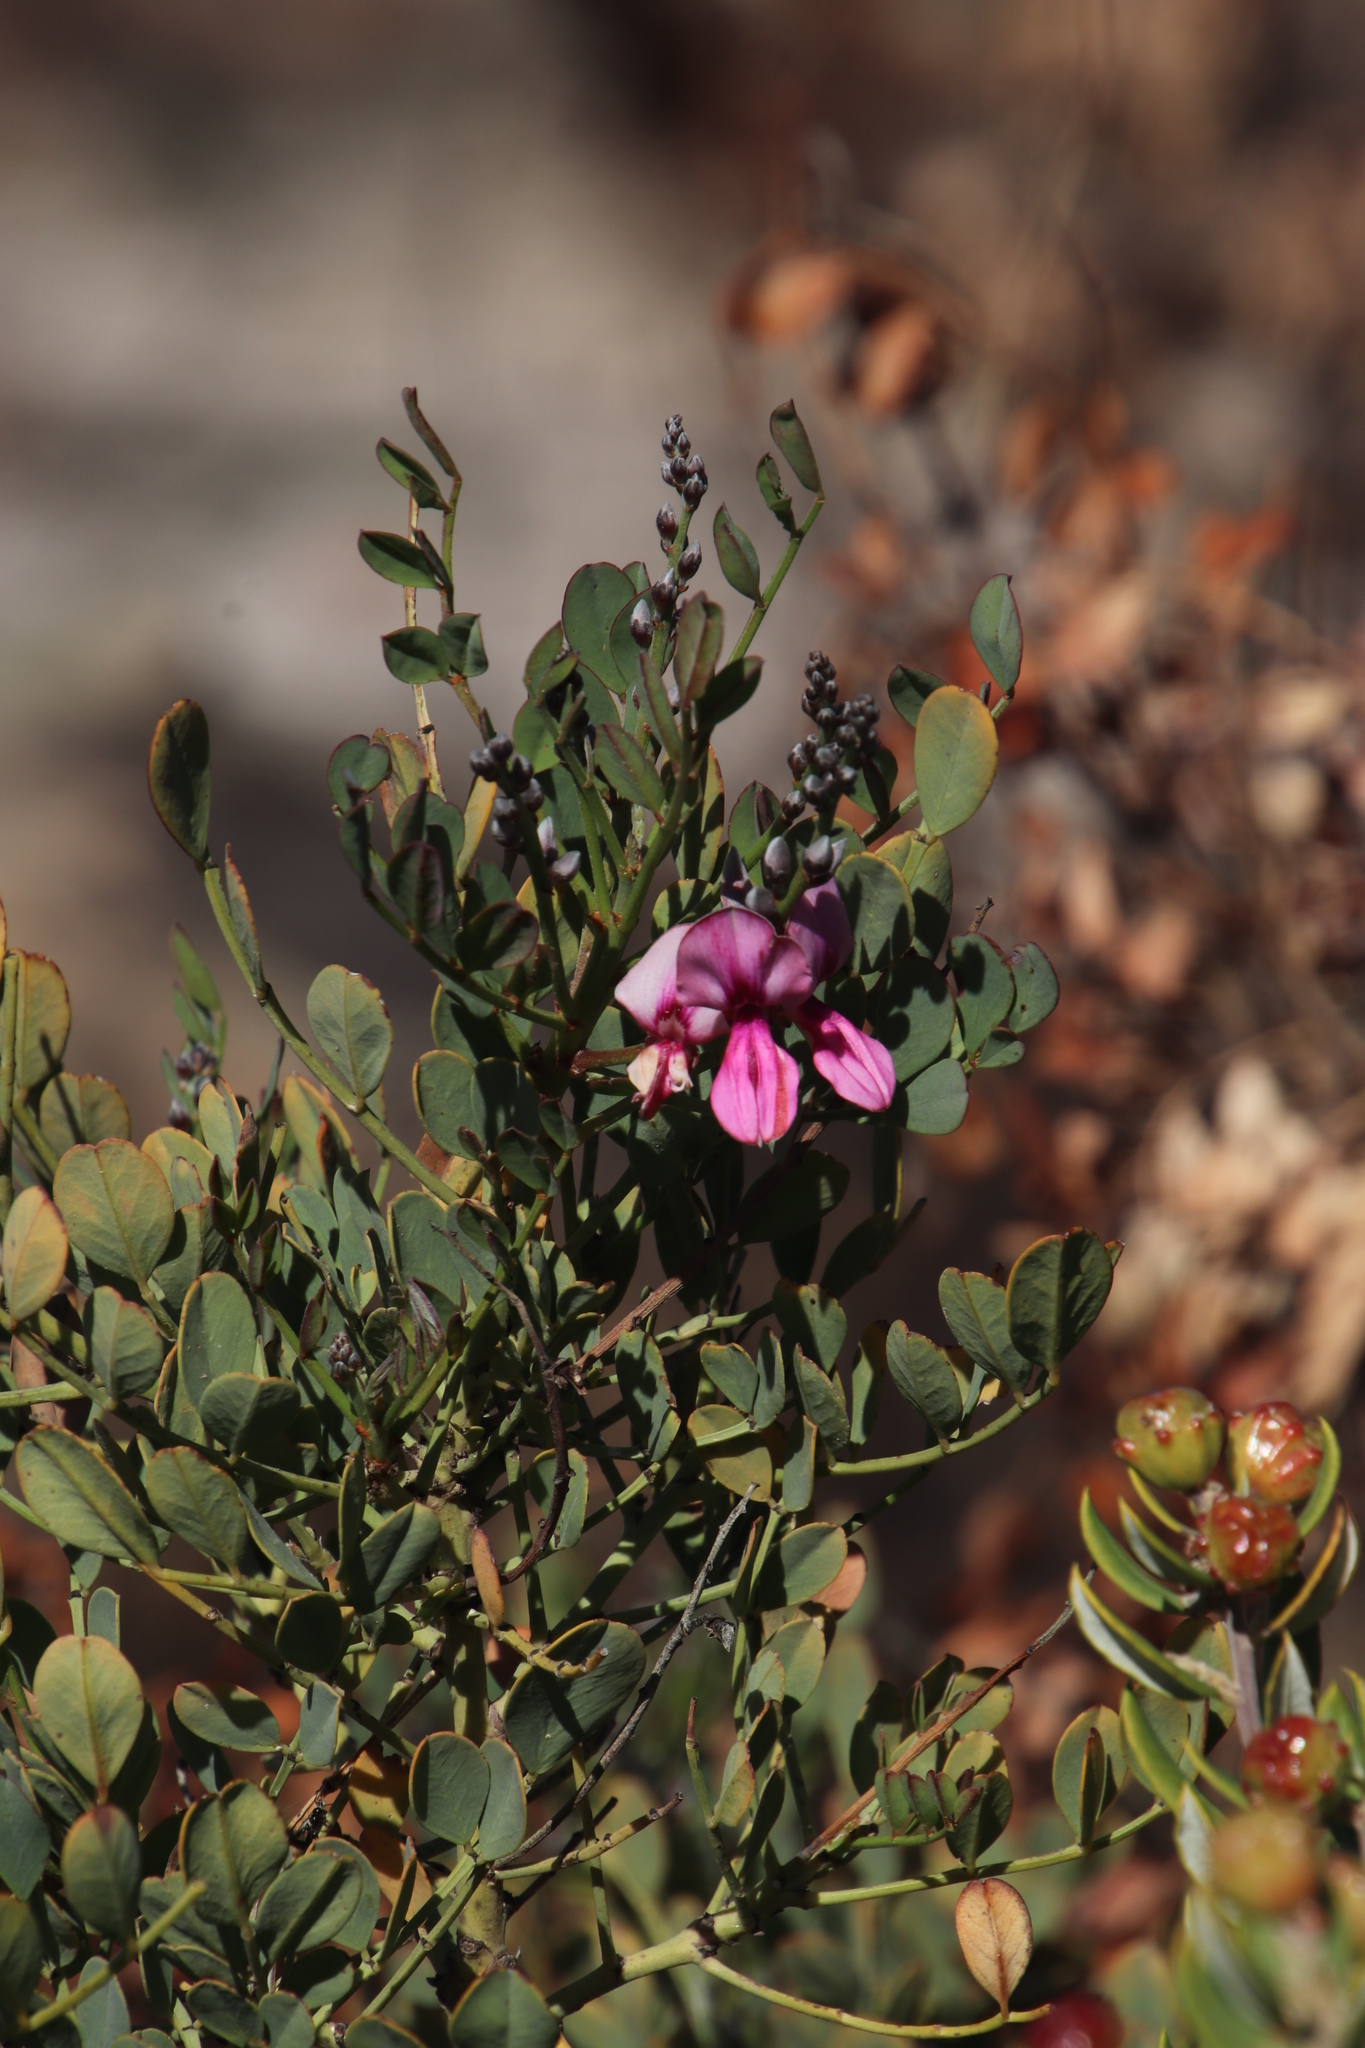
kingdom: Plantae
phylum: Tracheophyta
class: Magnoliopsida
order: Fabales
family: Fabaceae
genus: Indigofera
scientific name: Indigofera frutescens
